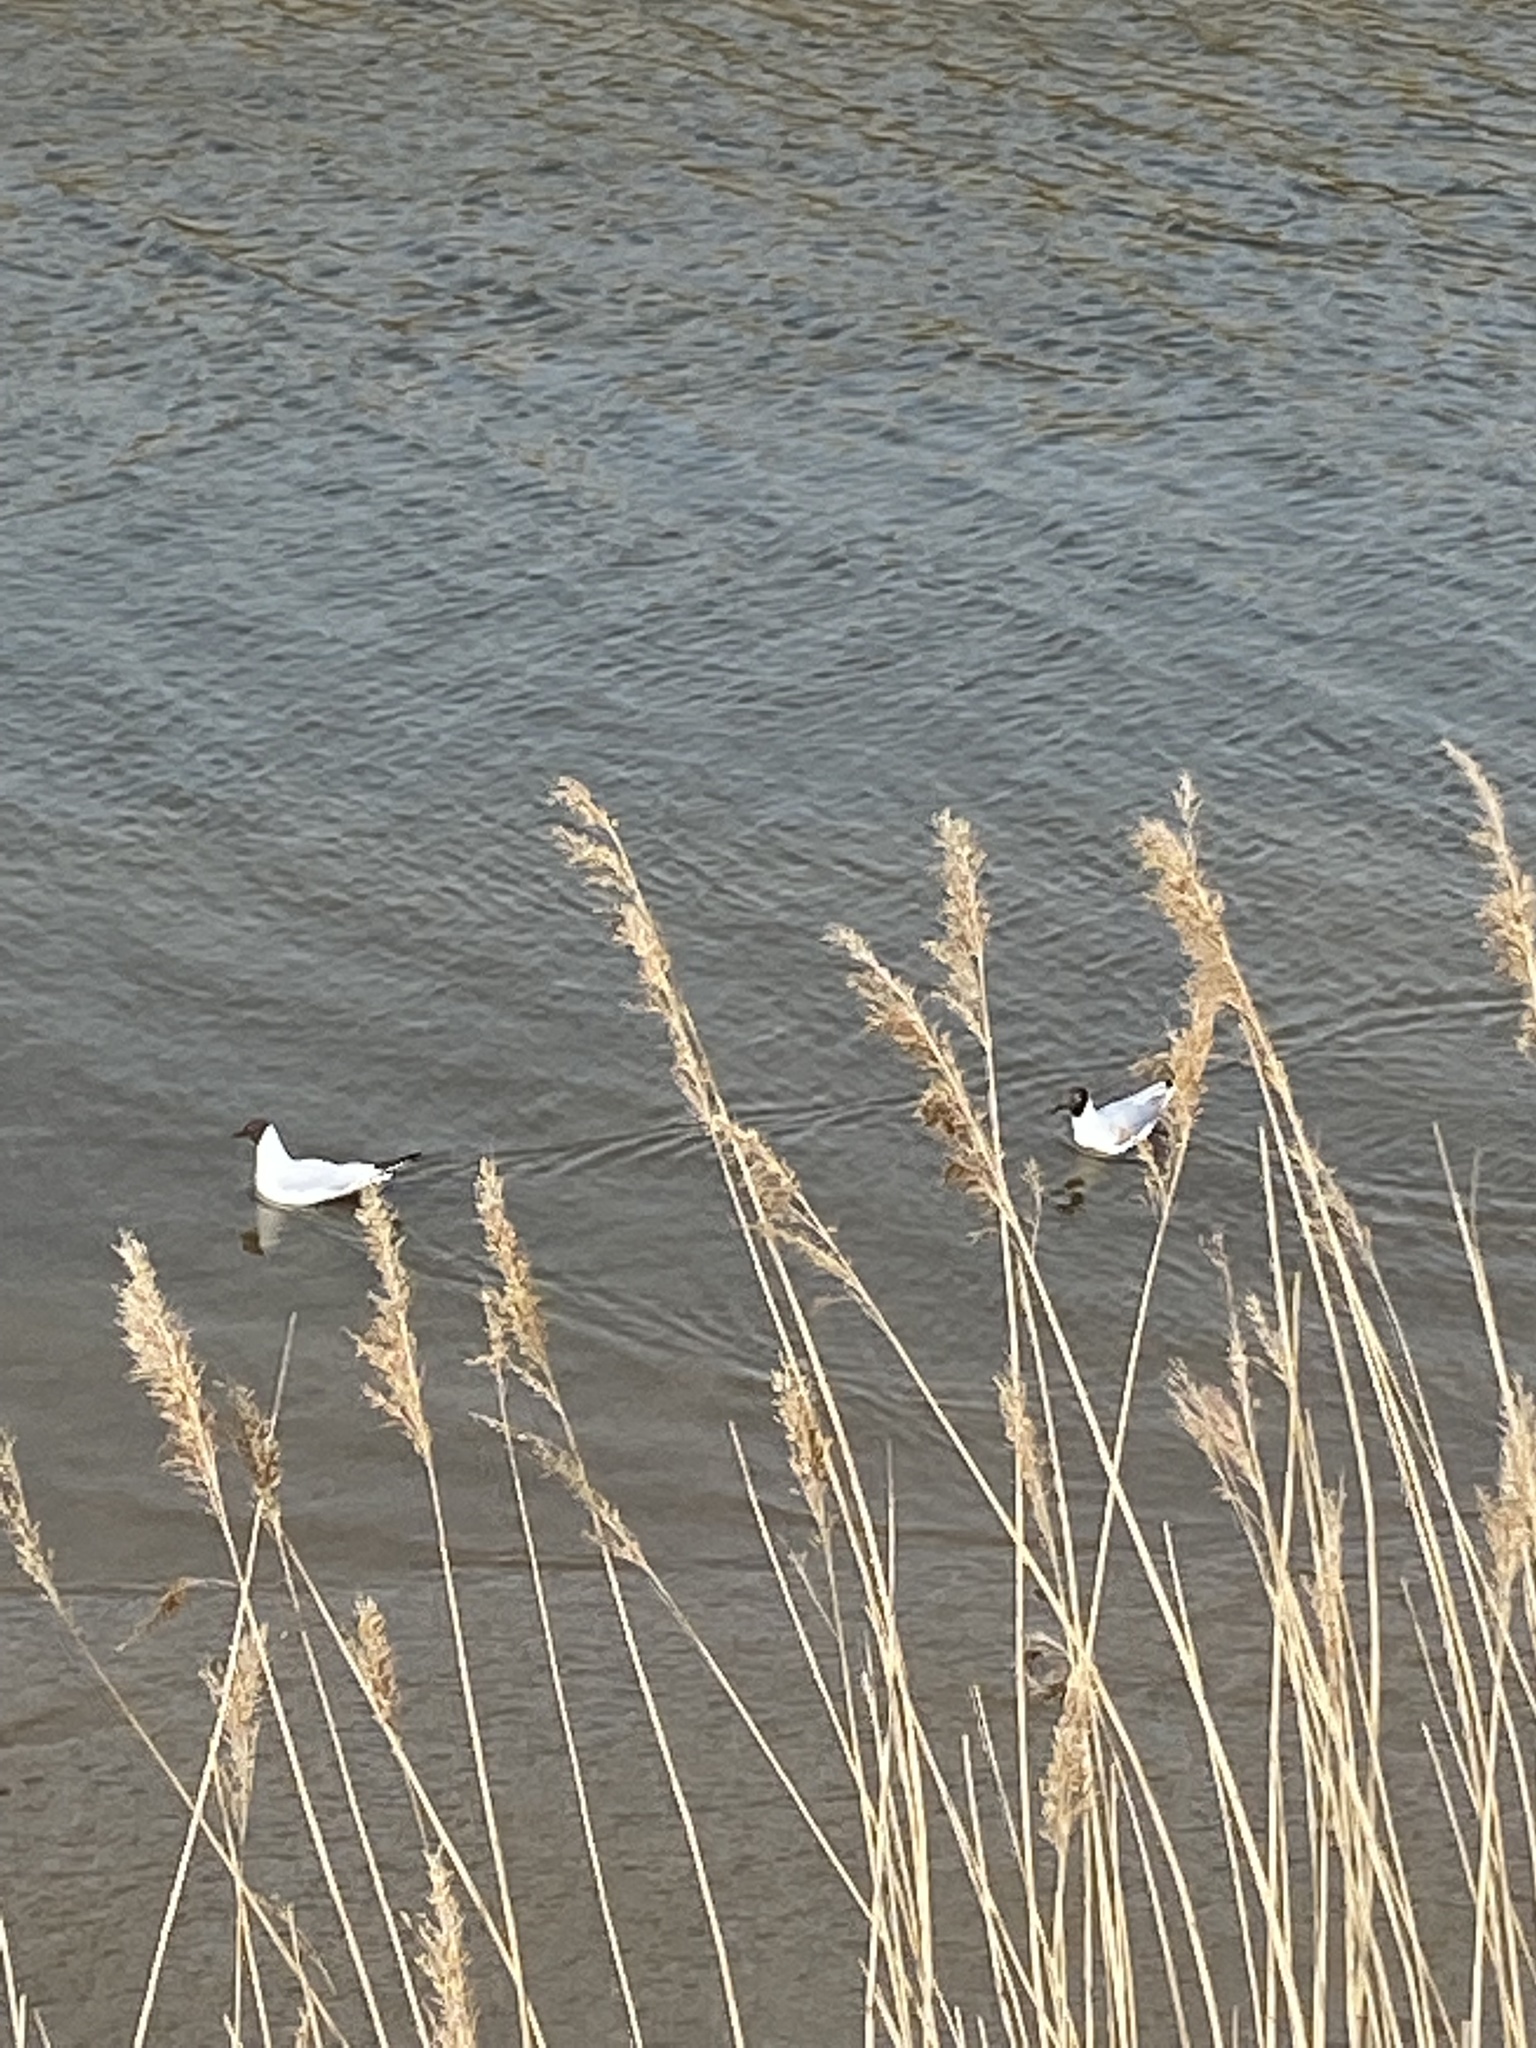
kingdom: Animalia
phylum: Chordata
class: Aves
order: Charadriiformes
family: Laridae
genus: Chroicocephalus
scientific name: Chroicocephalus ridibundus
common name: Black-headed gull
